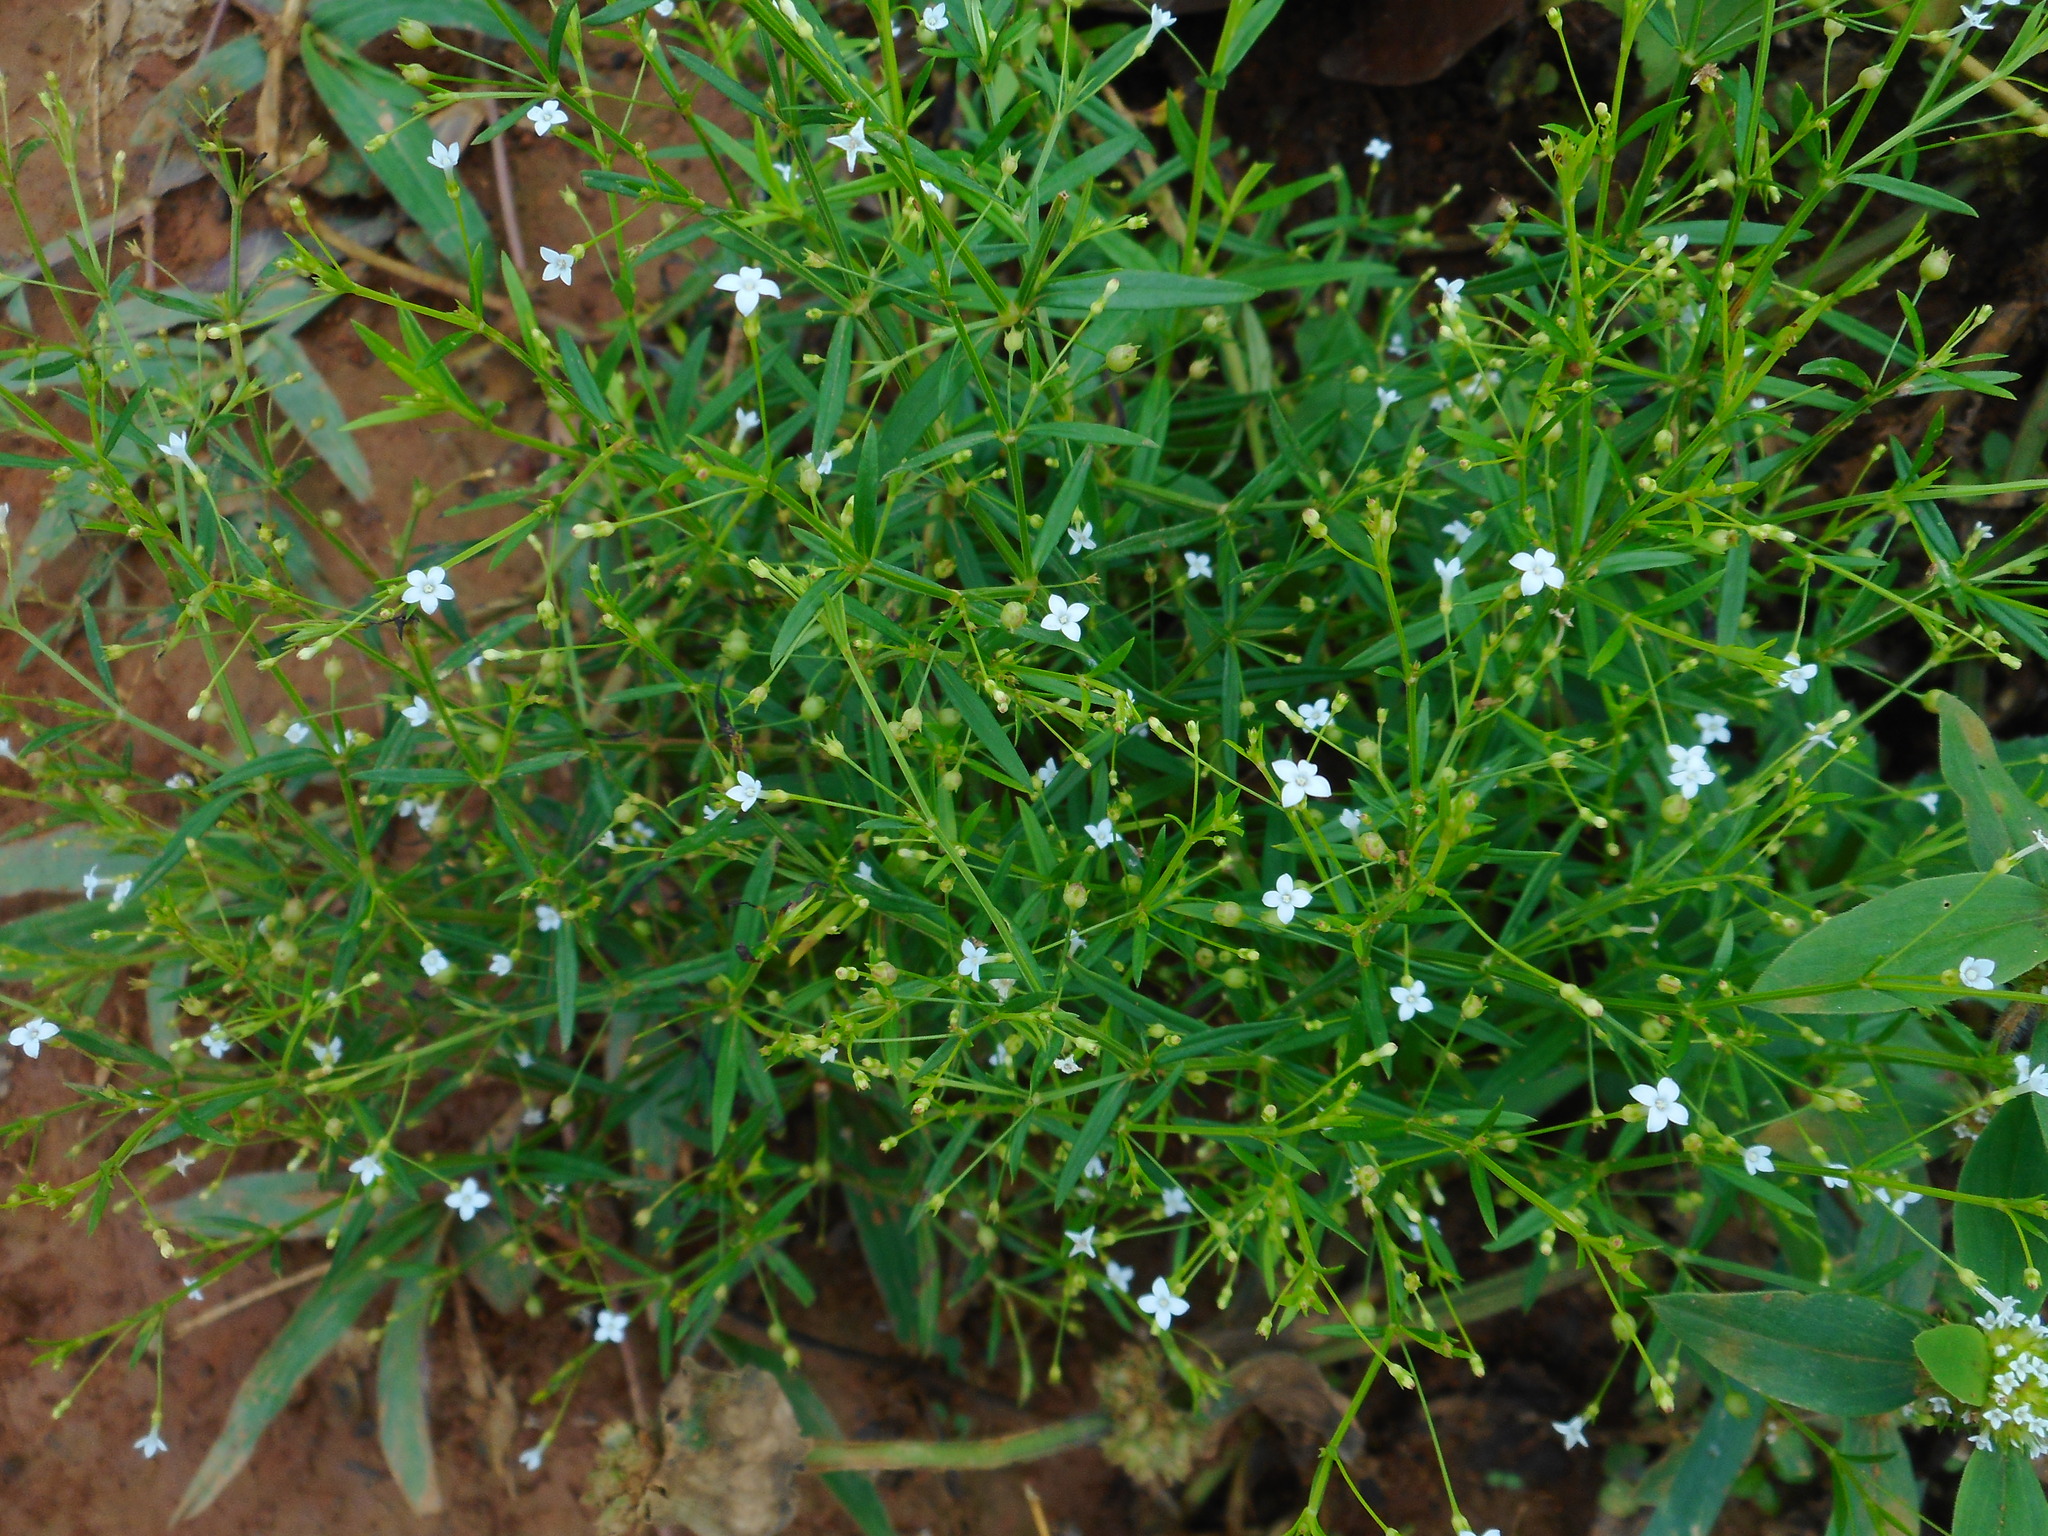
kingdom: Plantae
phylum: Tracheophyta
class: Magnoliopsida
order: Gentianales
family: Rubiaceae
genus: Oldenlandia
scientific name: Oldenlandia herbacea
